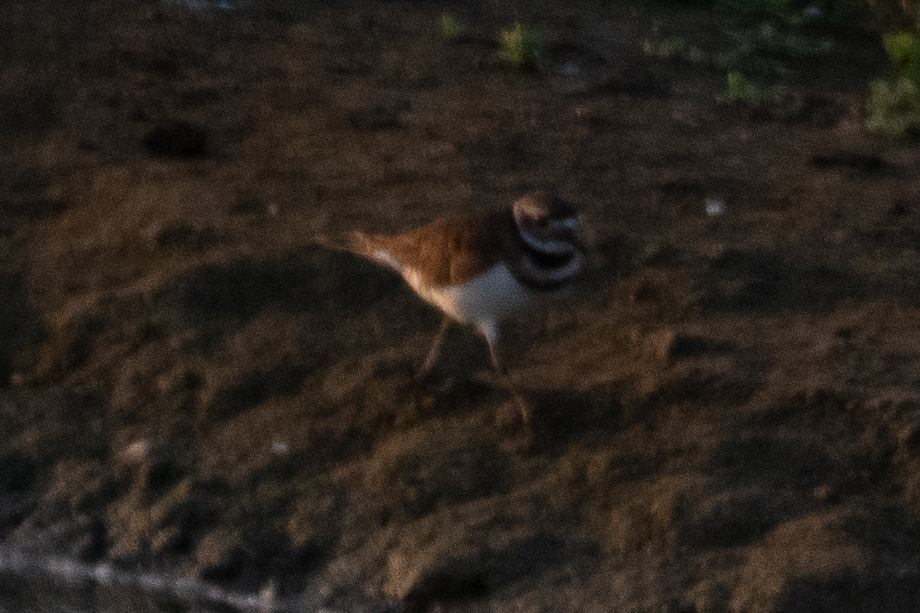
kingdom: Animalia
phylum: Chordata
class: Aves
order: Charadriiformes
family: Charadriidae
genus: Charadrius
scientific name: Charadrius vociferus
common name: Killdeer
